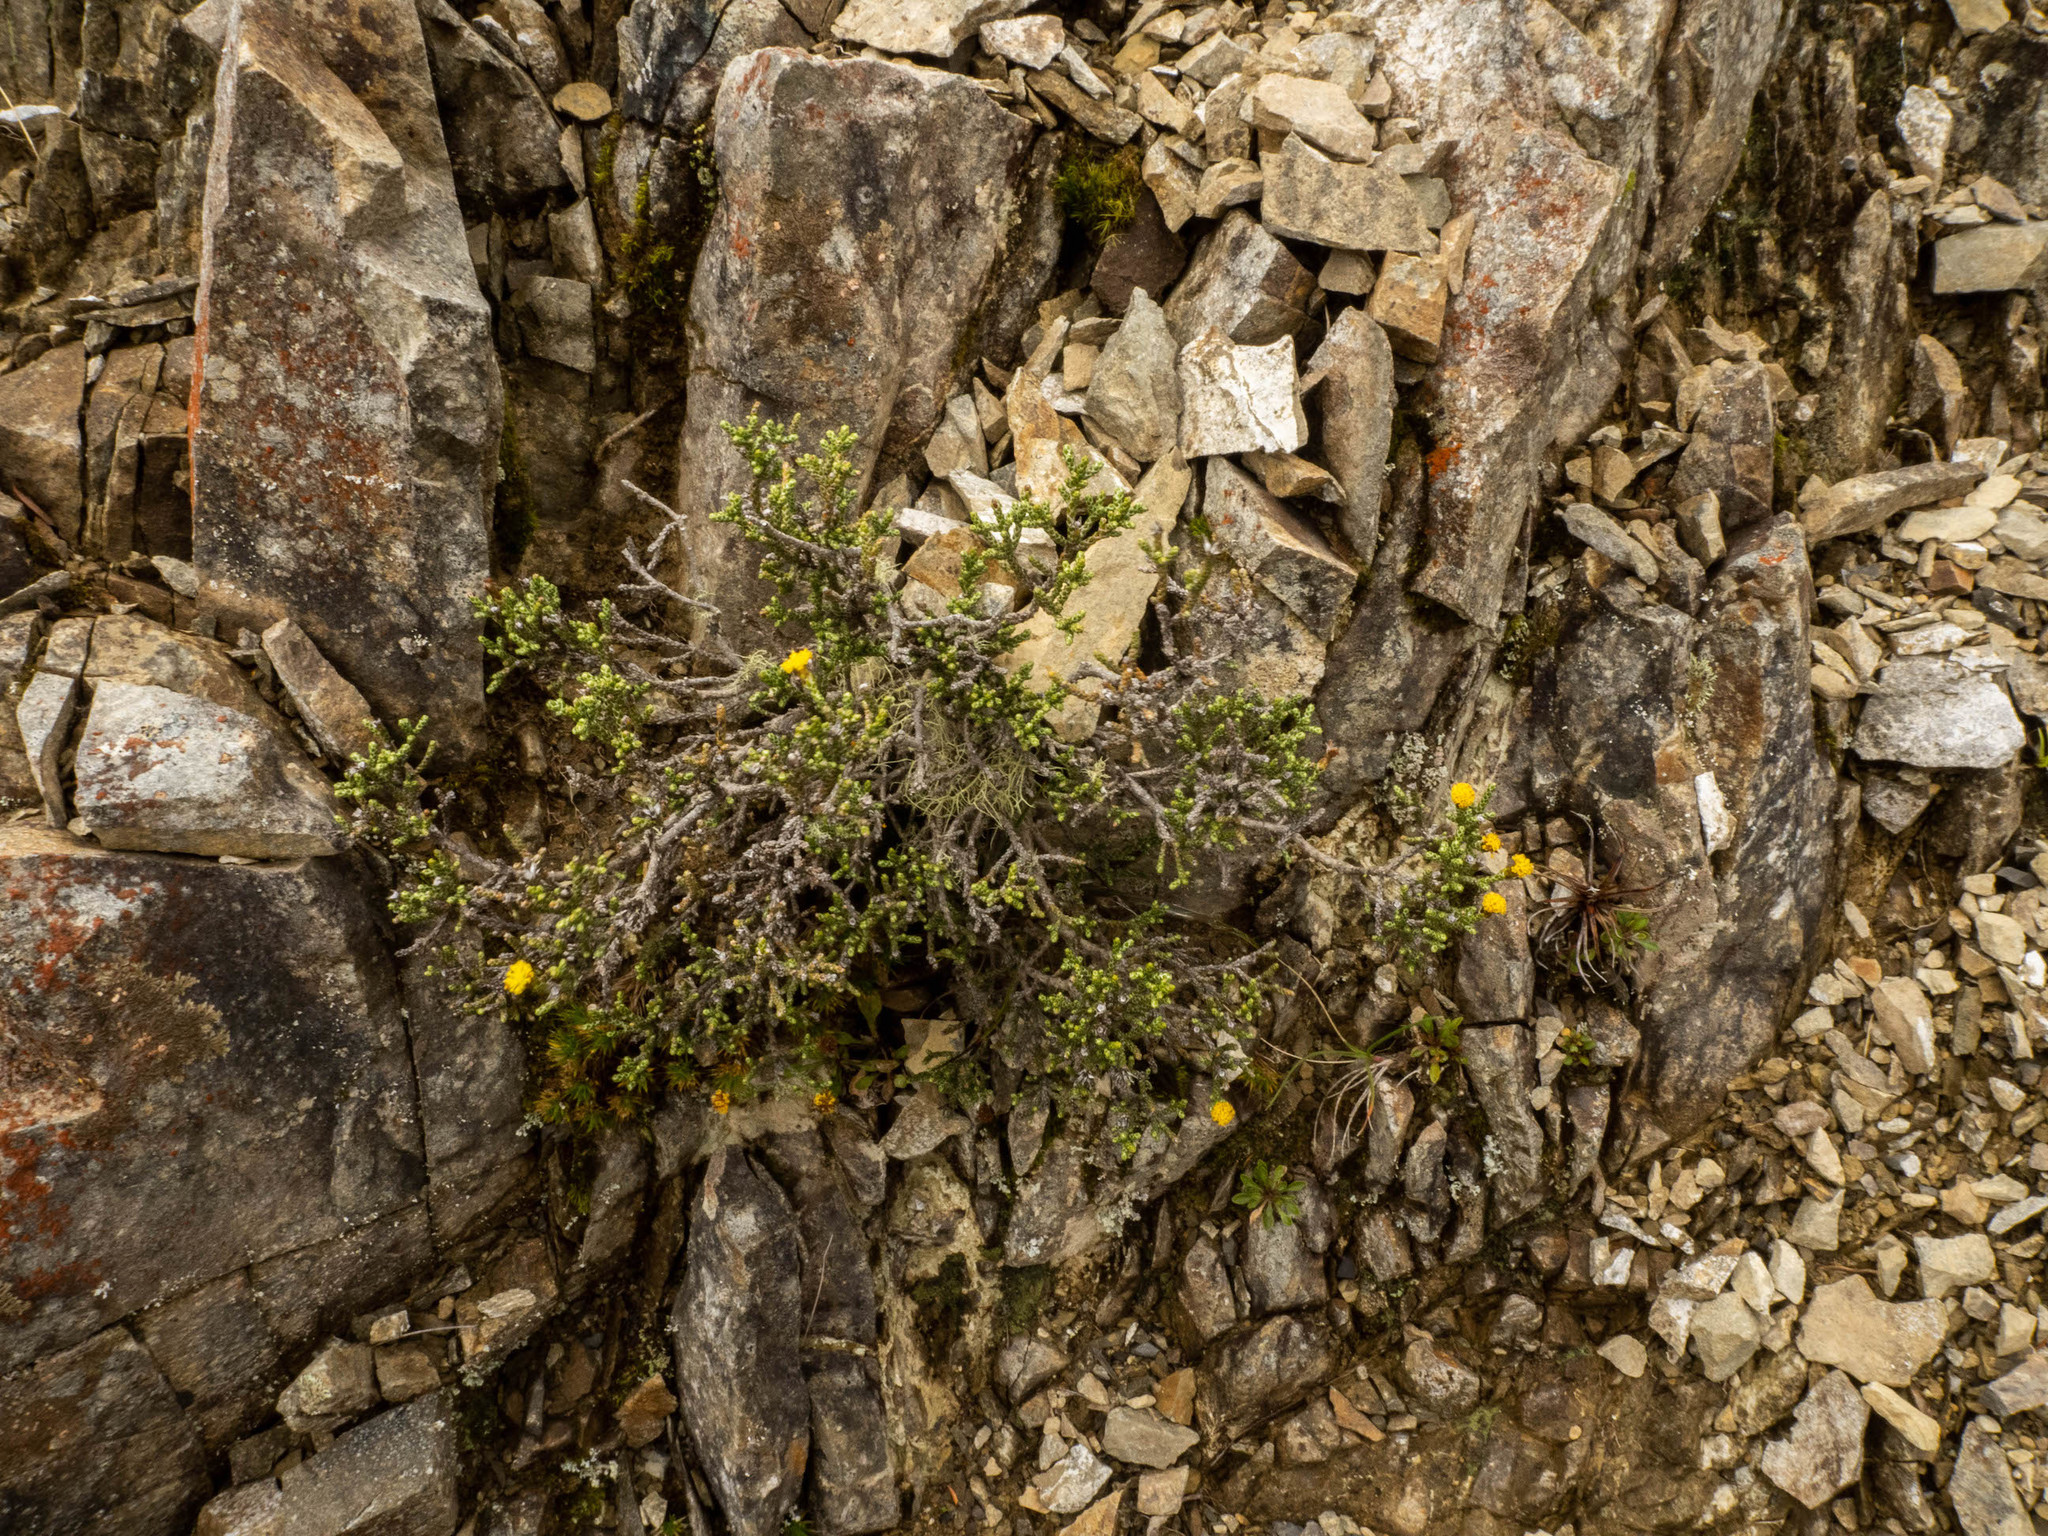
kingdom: Plantae
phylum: Tracheophyta
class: Magnoliopsida
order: Asterales
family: Asteraceae
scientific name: Asteraceae
